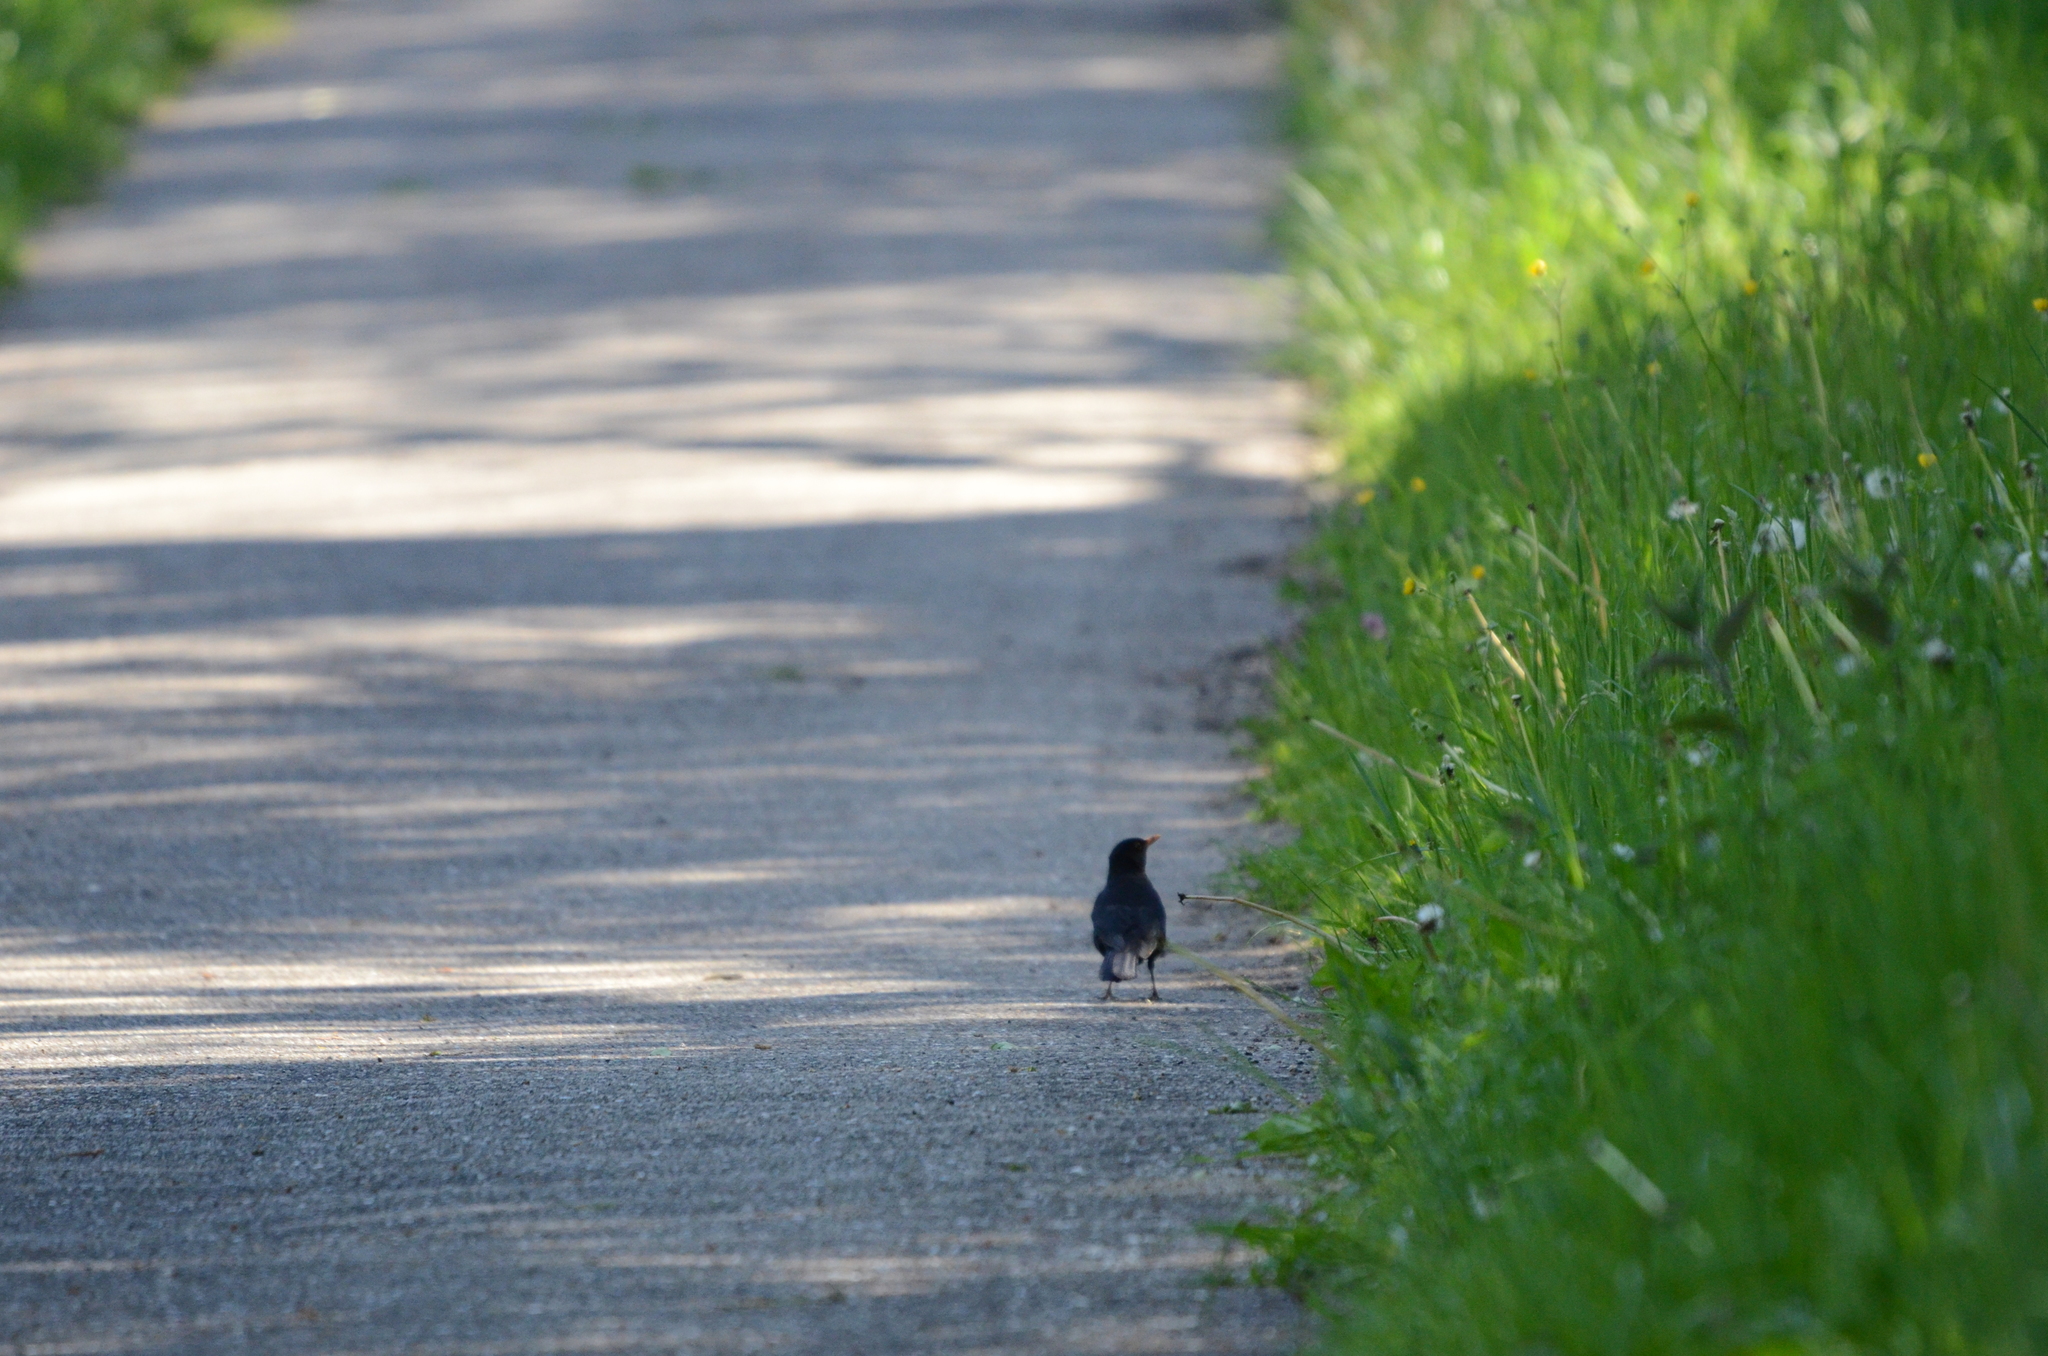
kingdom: Animalia
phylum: Chordata
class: Aves
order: Passeriformes
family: Turdidae
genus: Turdus
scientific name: Turdus merula
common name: Common blackbird
